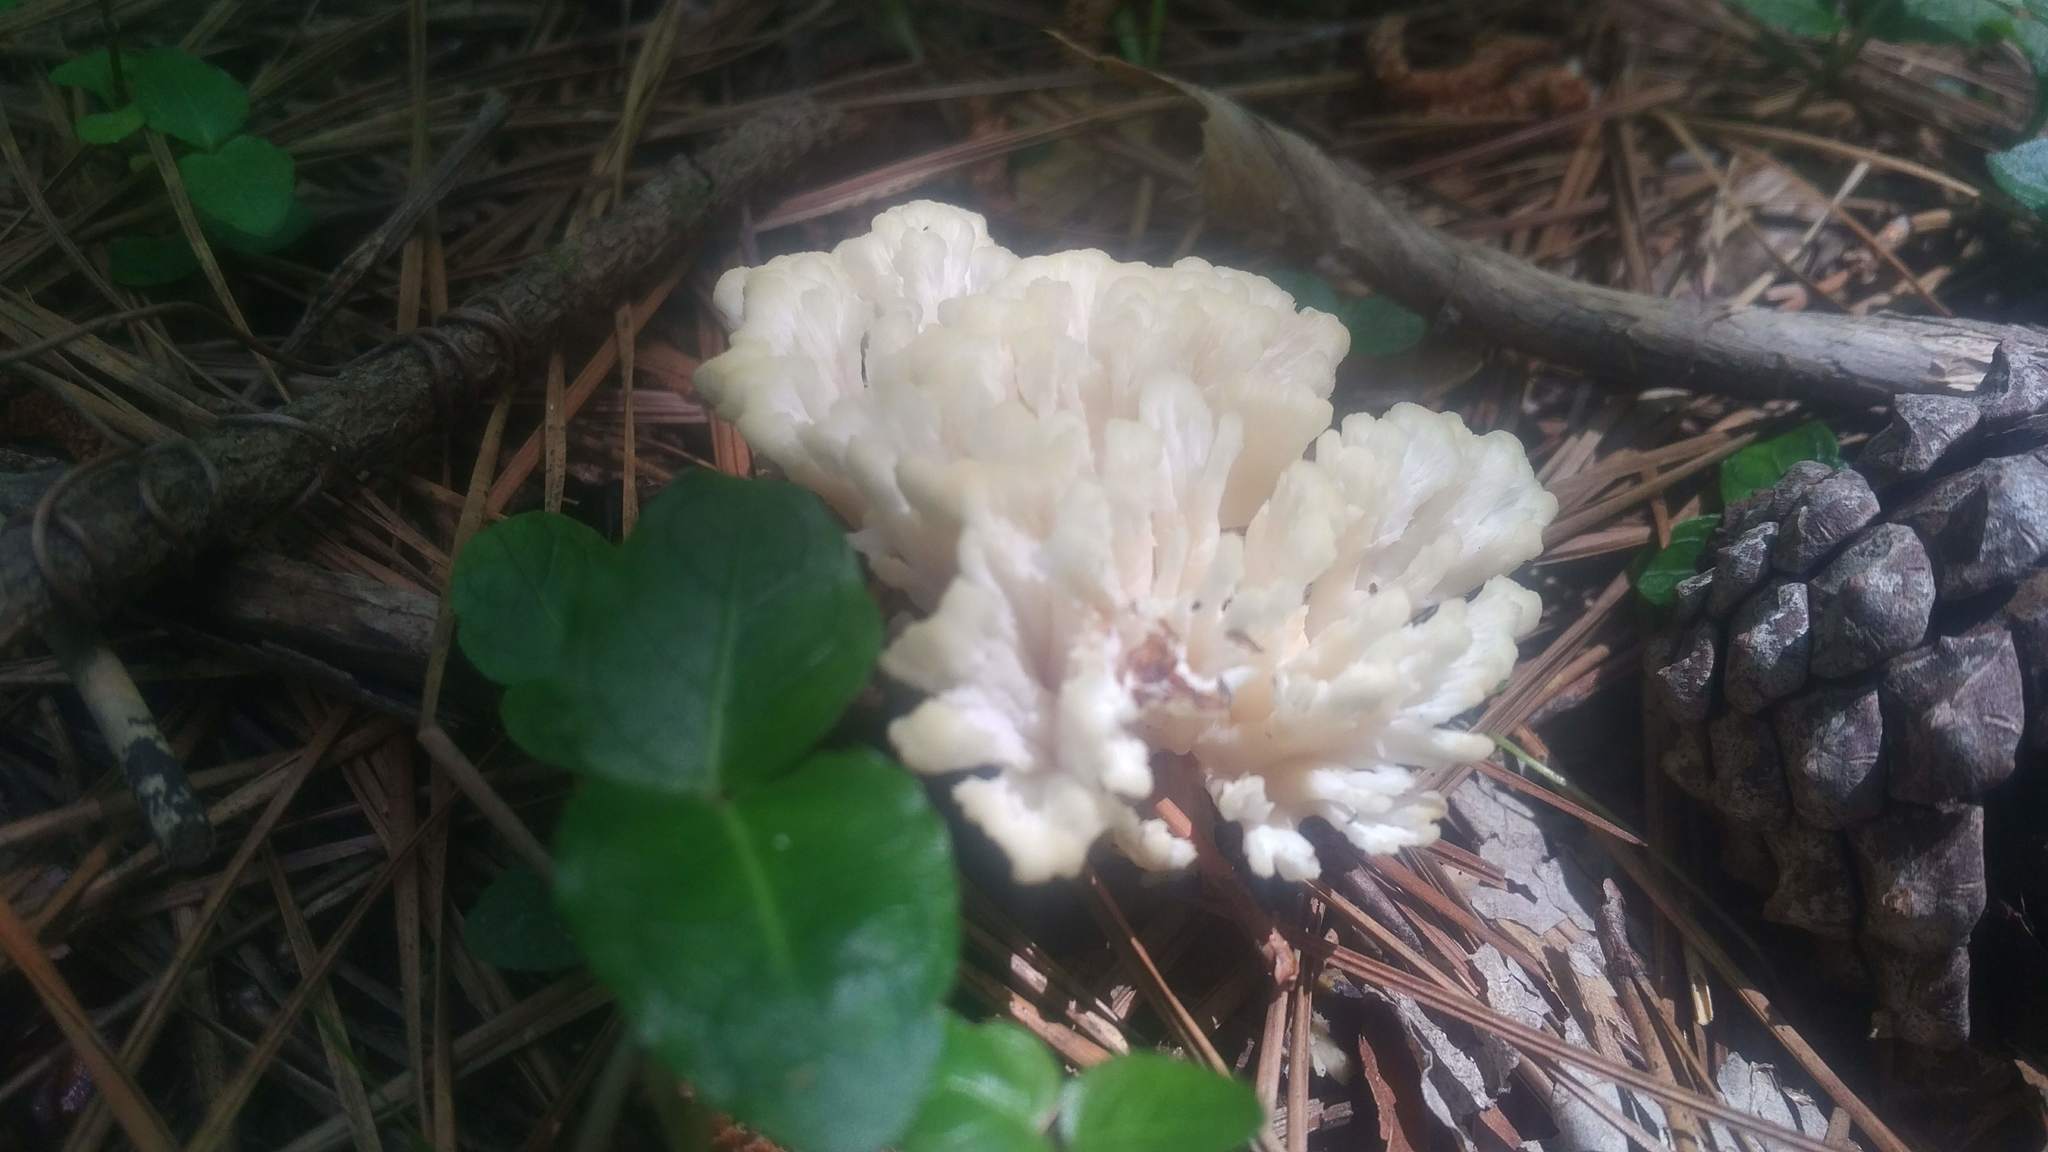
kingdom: Fungi
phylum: Basidiomycota
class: Agaricomycetes
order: Sebacinales
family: Sebacinaceae
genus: Sebacina
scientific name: Sebacina schweinitzii
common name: Jellied false coral fungus
